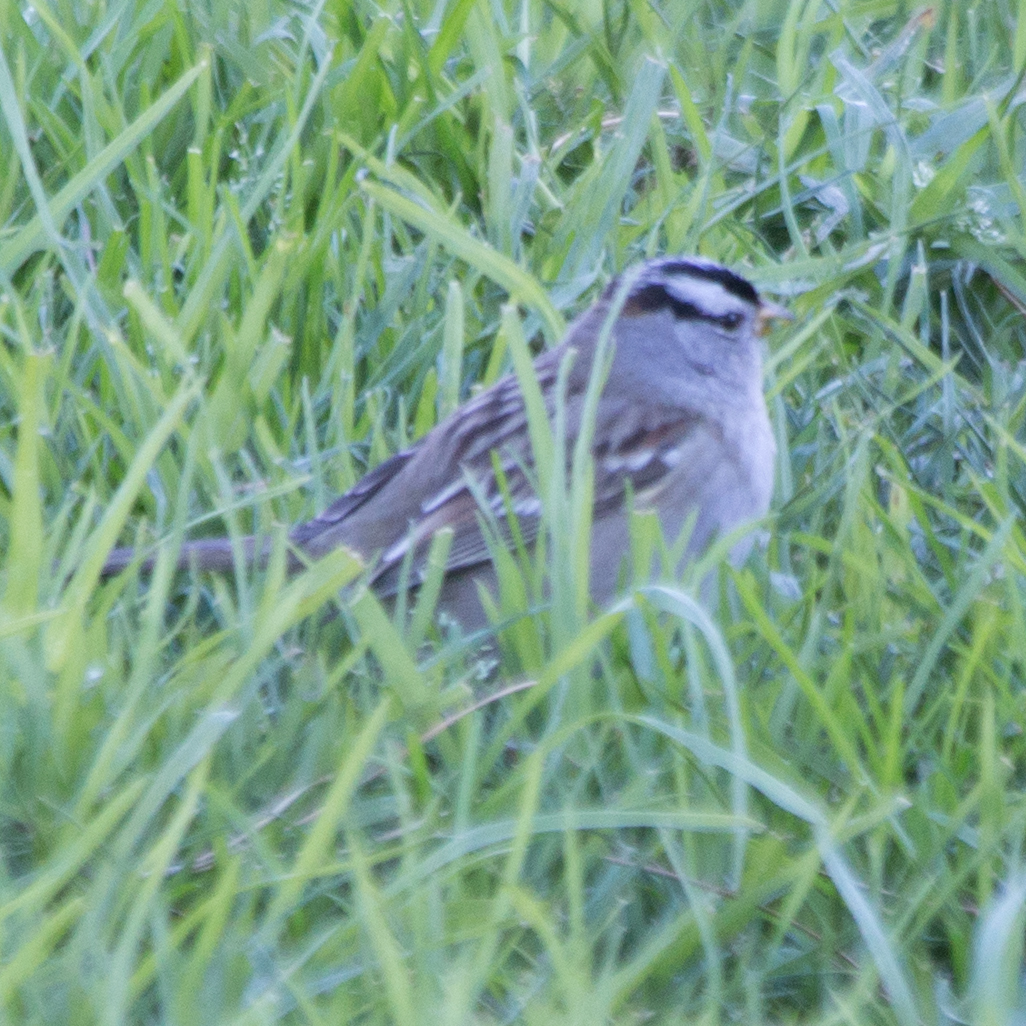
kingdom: Animalia
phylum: Chordata
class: Aves
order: Passeriformes
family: Passerellidae
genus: Zonotrichia
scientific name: Zonotrichia leucophrys
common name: White-crowned sparrow
